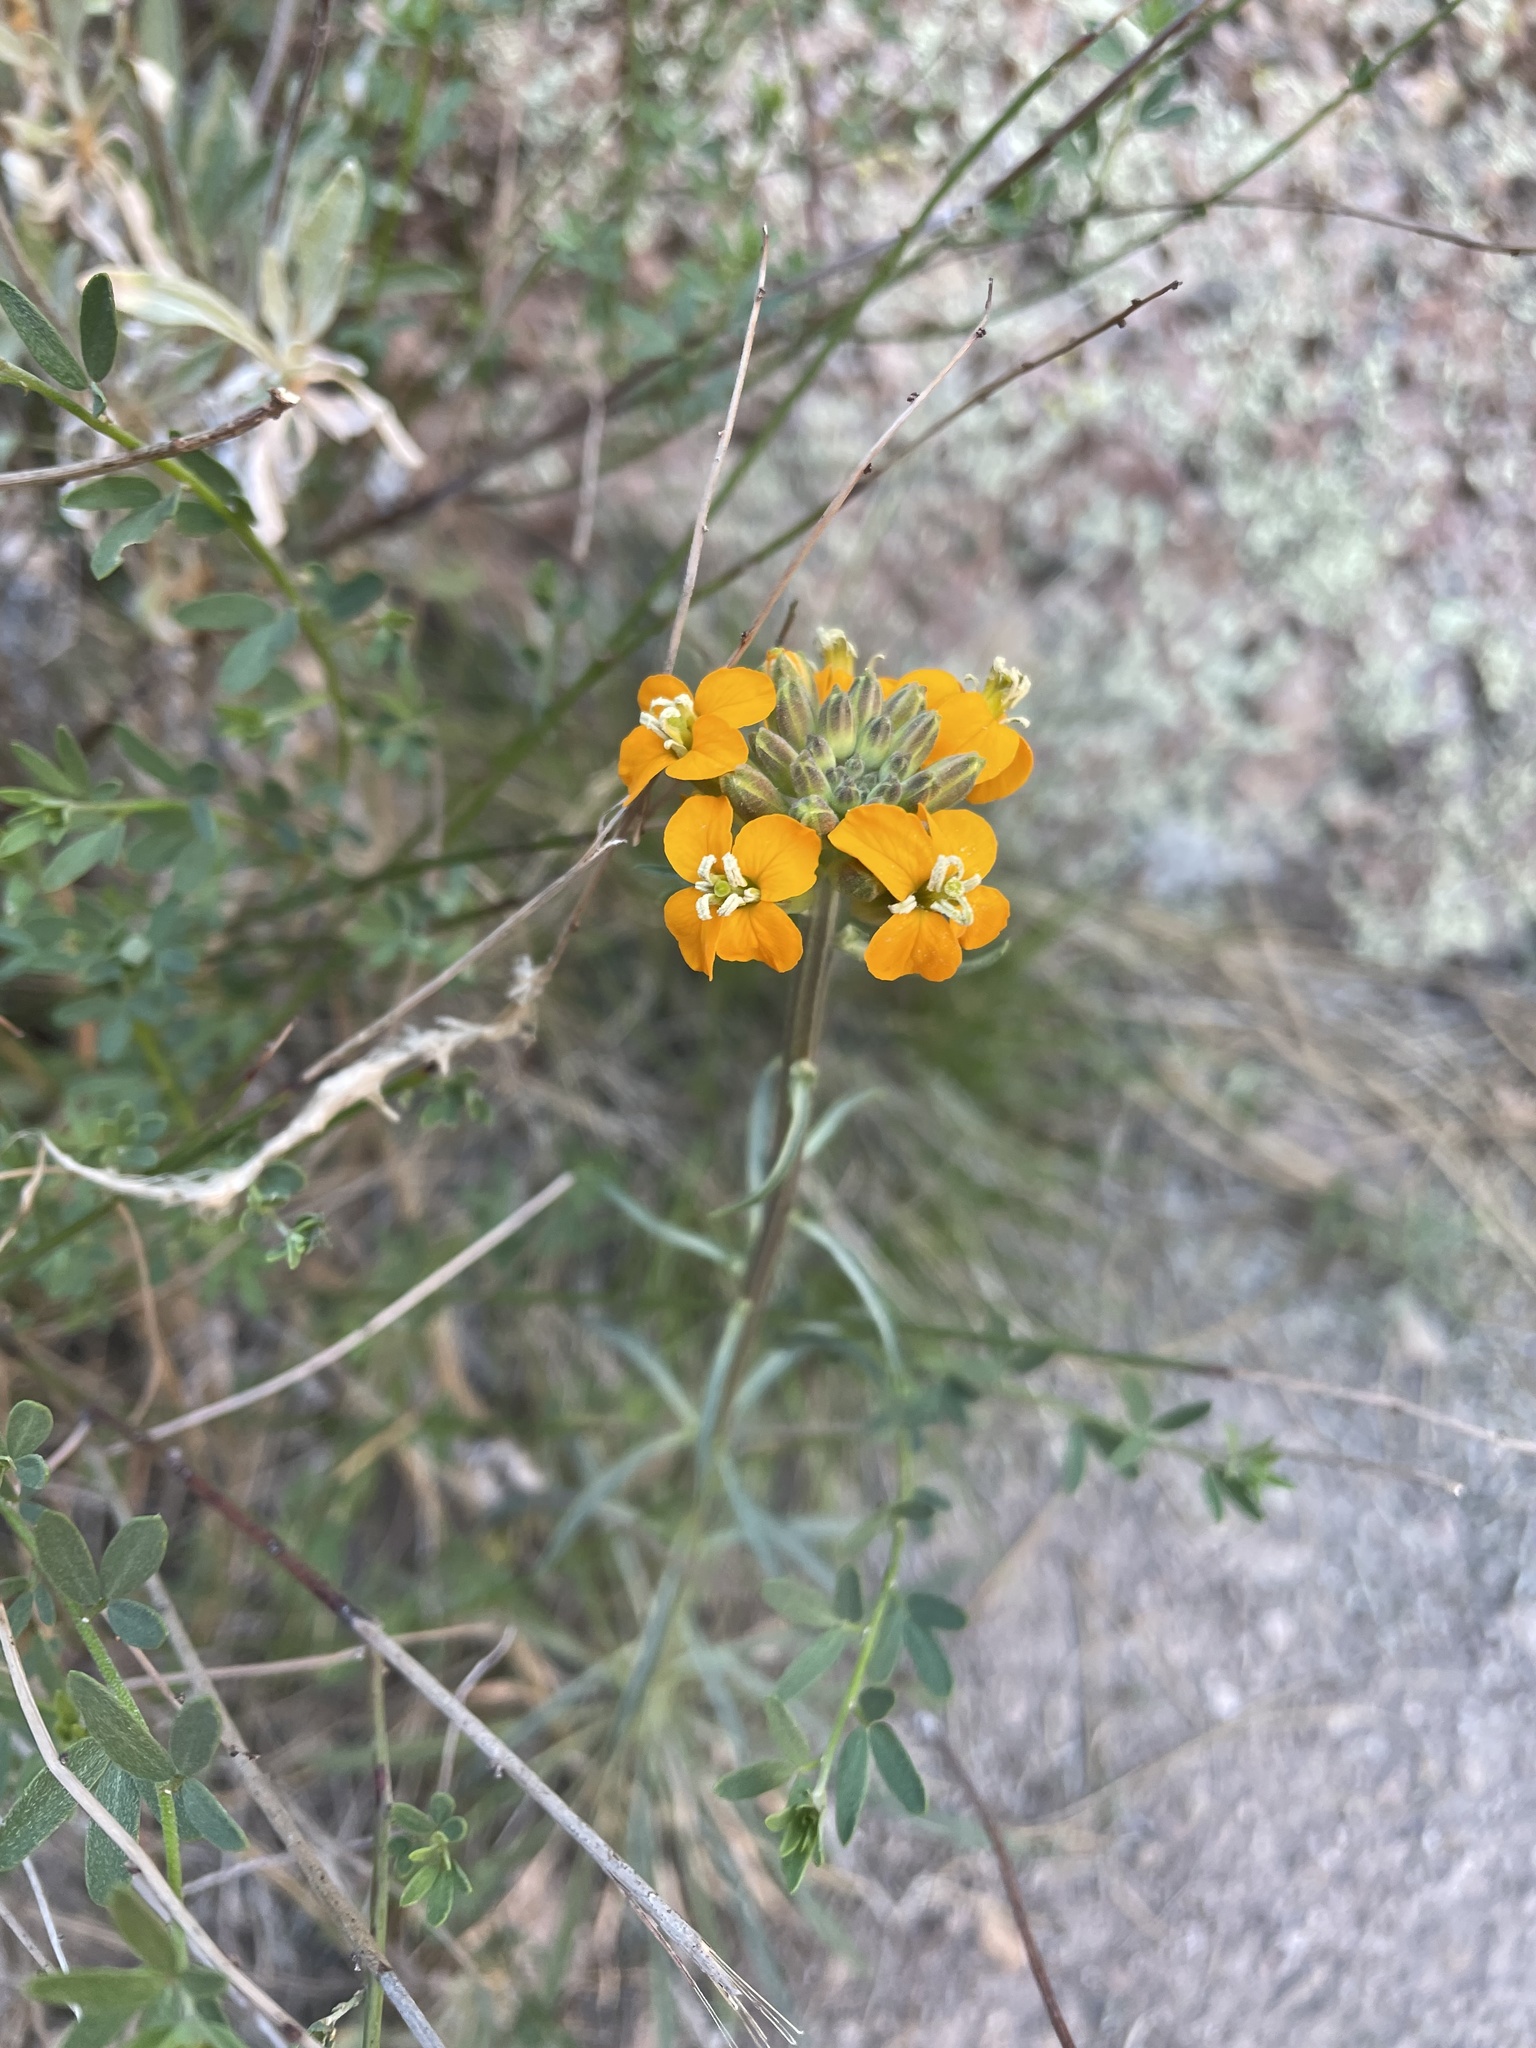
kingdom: Plantae
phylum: Tracheophyta
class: Magnoliopsida
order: Brassicales
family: Brassicaceae
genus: Erysimum
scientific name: Erysimum capitatum
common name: Western wallflower
